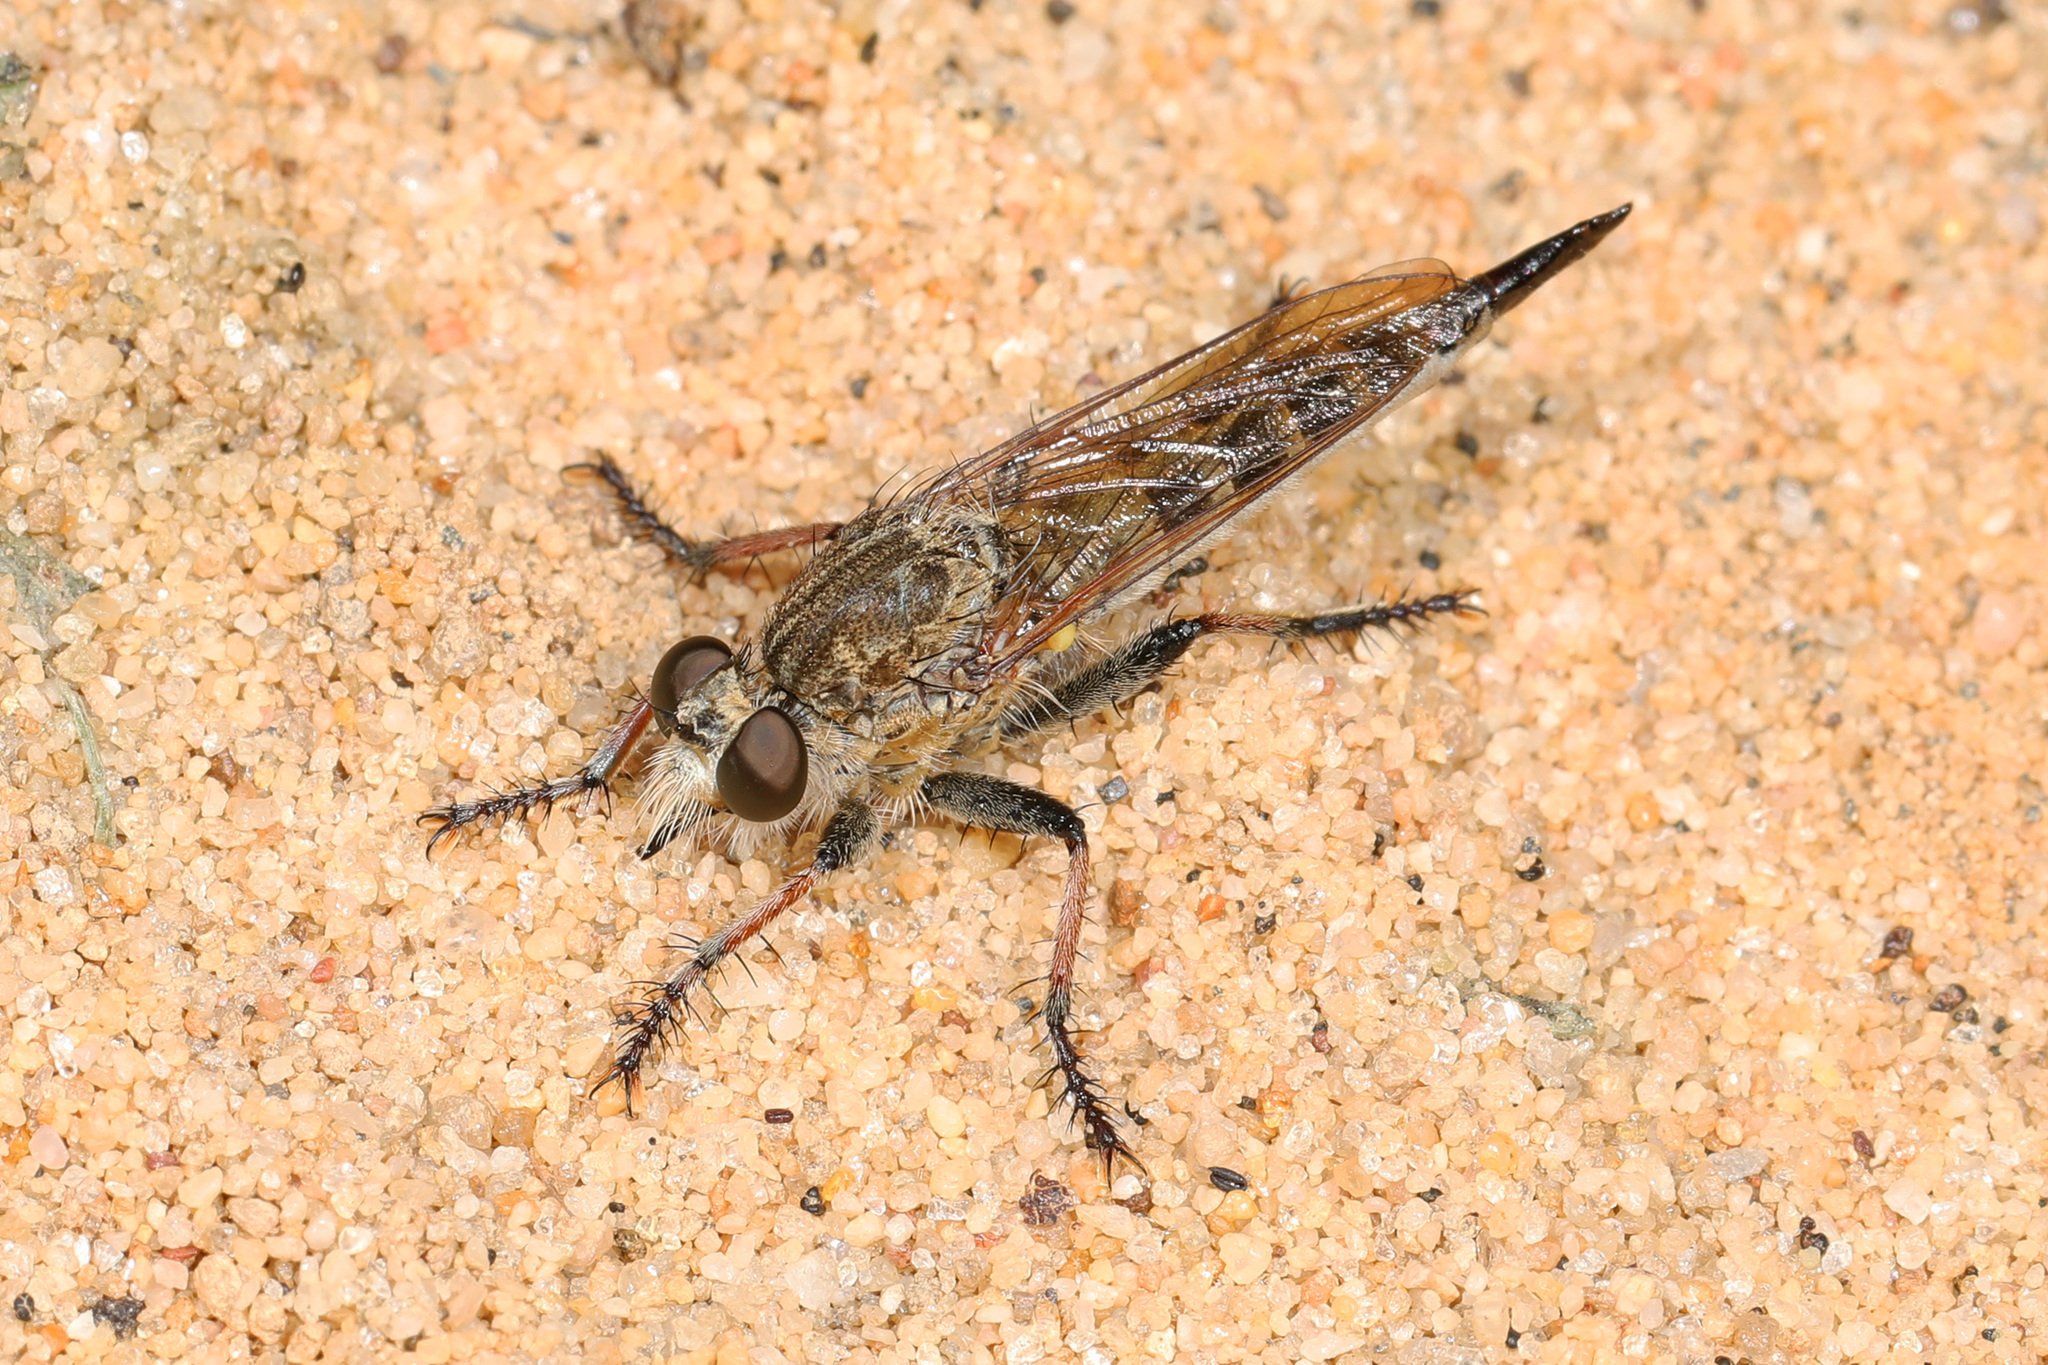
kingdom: Animalia
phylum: Arthropoda
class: Insecta
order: Diptera
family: Asilidae
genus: Efferia
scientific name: Efferia albibarbis
